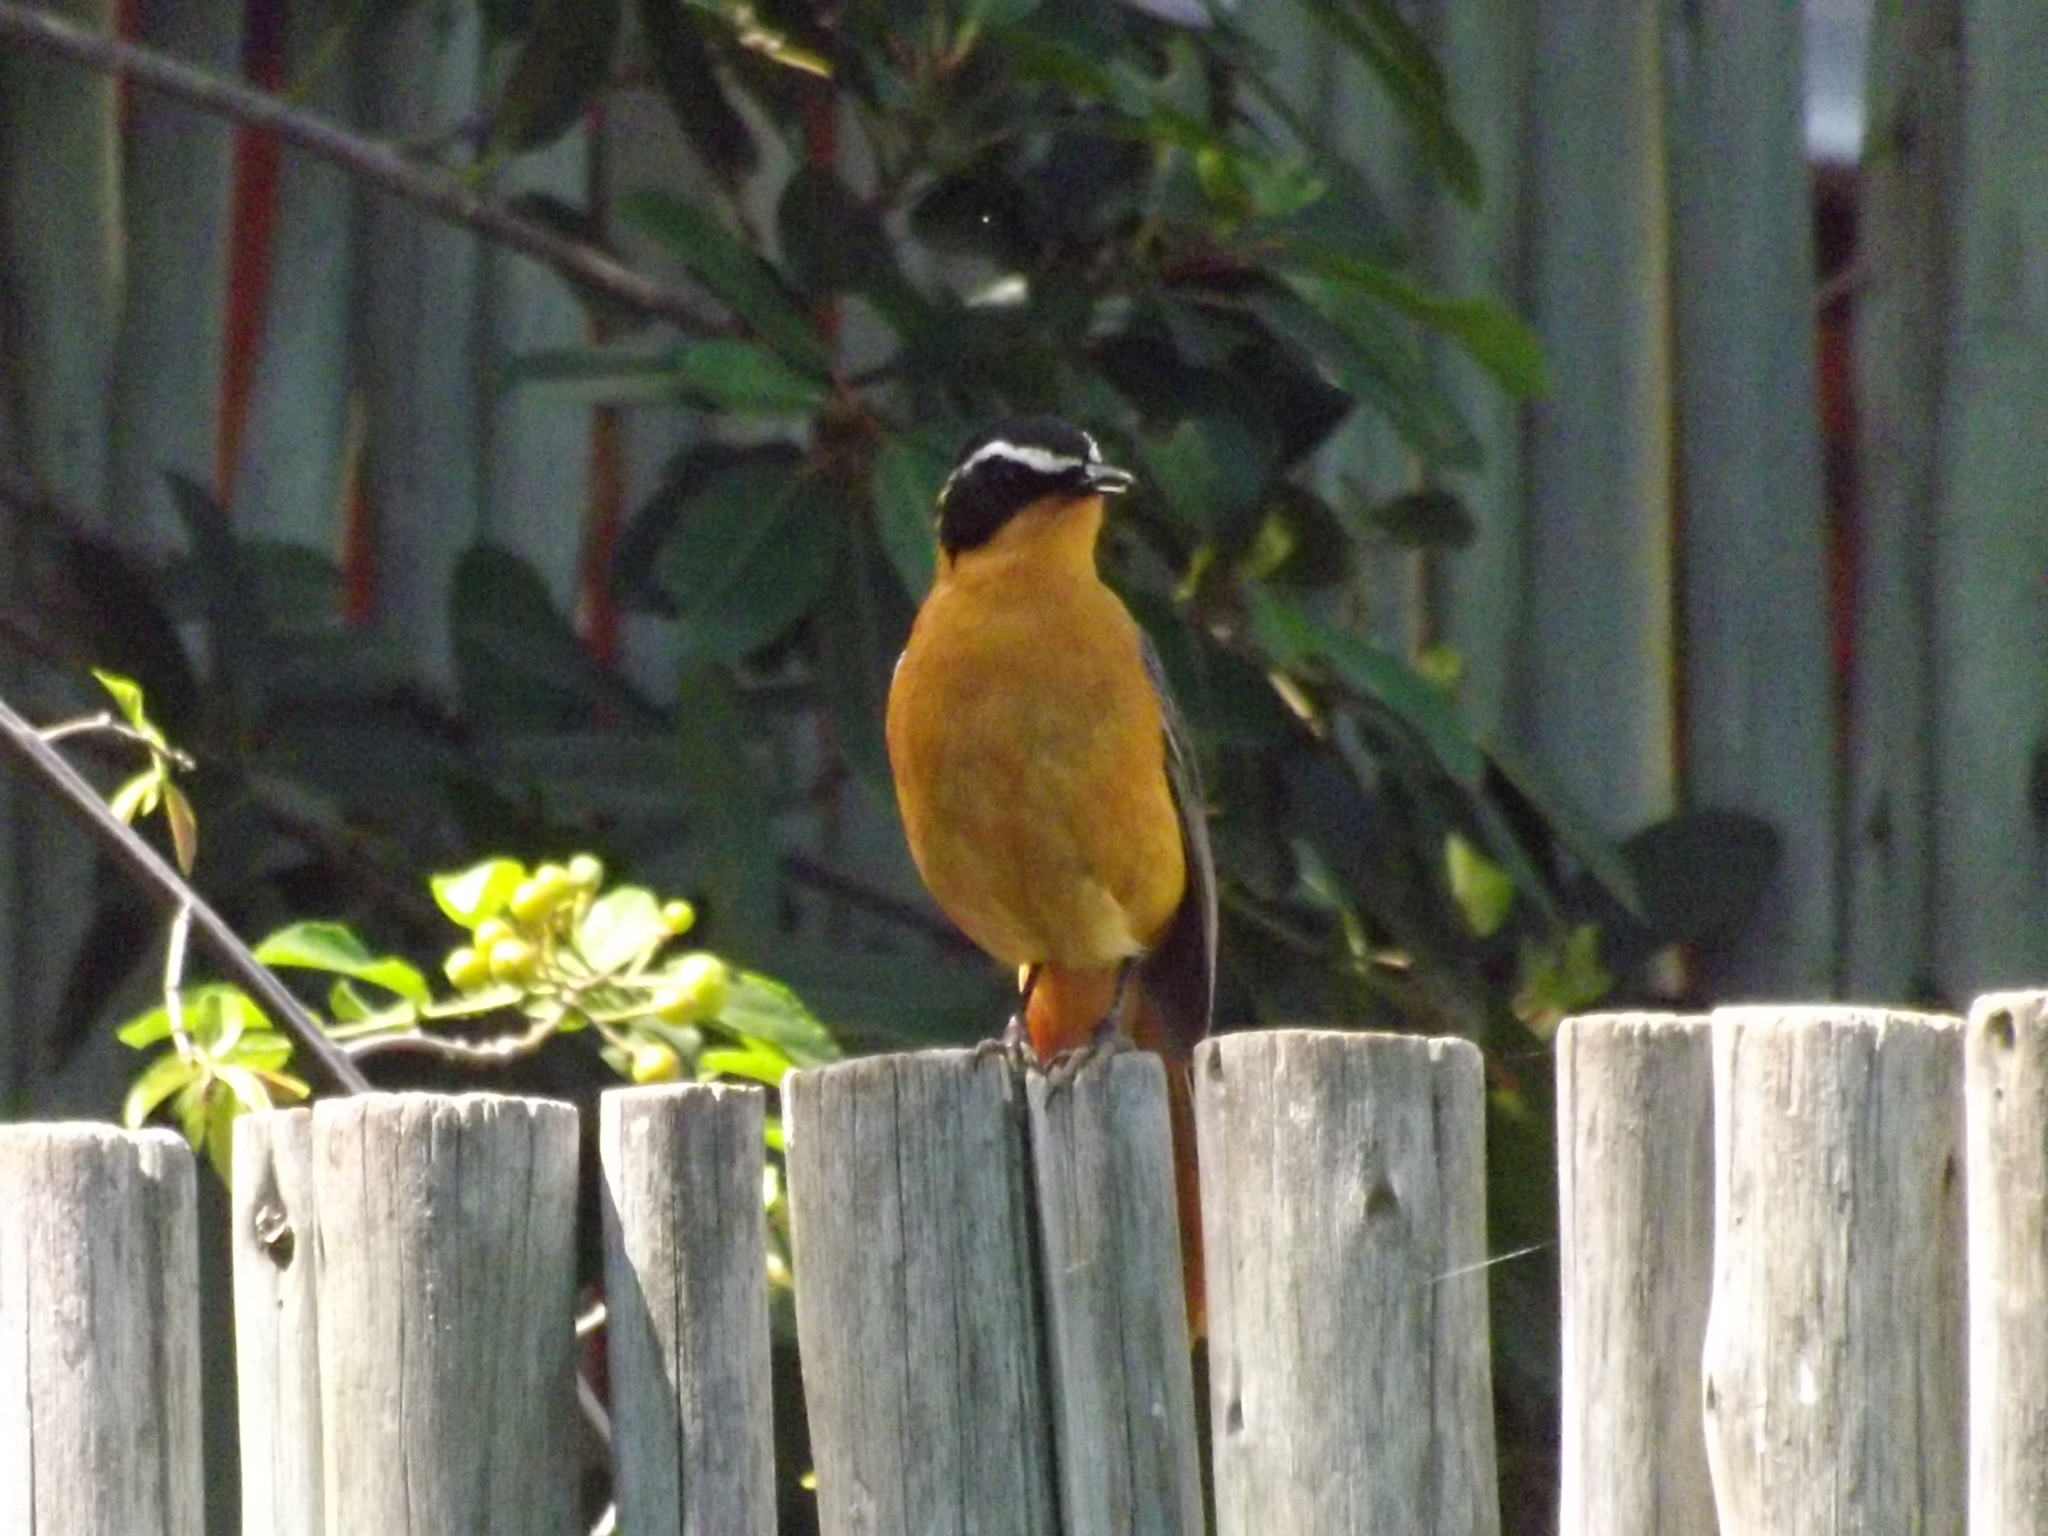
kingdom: Animalia
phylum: Chordata
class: Aves
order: Passeriformes
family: Muscicapidae
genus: Cossypha
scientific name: Cossypha heuglini
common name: White-browed robin-chat
